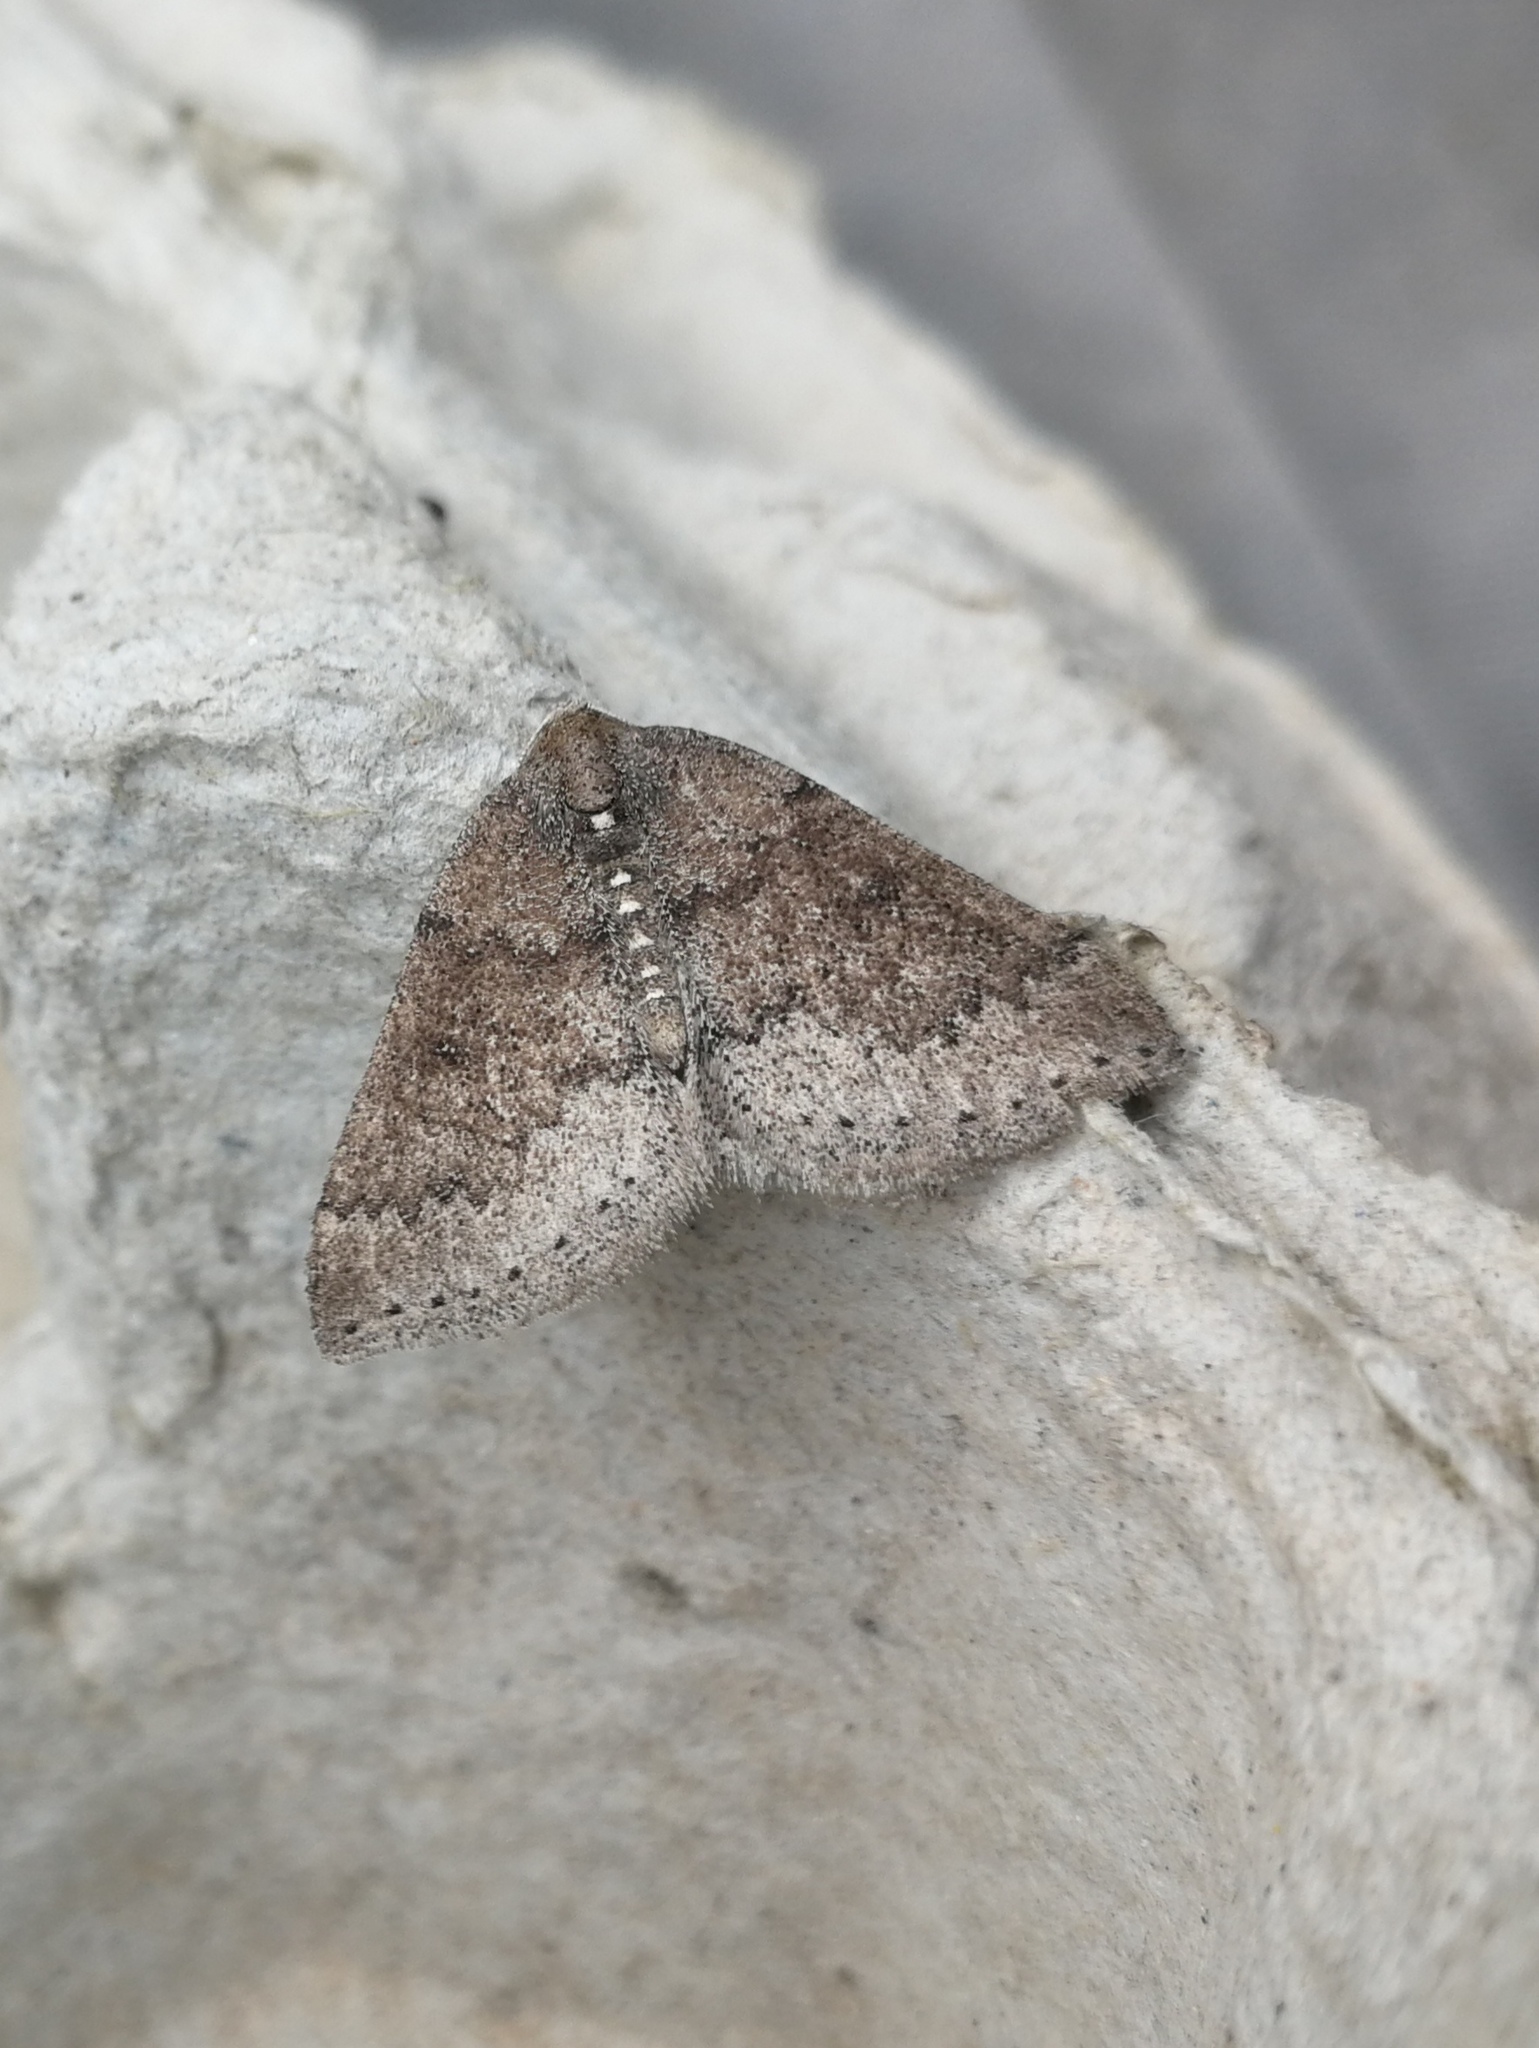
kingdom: Animalia
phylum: Arthropoda
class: Insecta
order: Lepidoptera
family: Geometridae
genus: Aleucis
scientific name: Aleucis distinctata
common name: Sloe carpet
